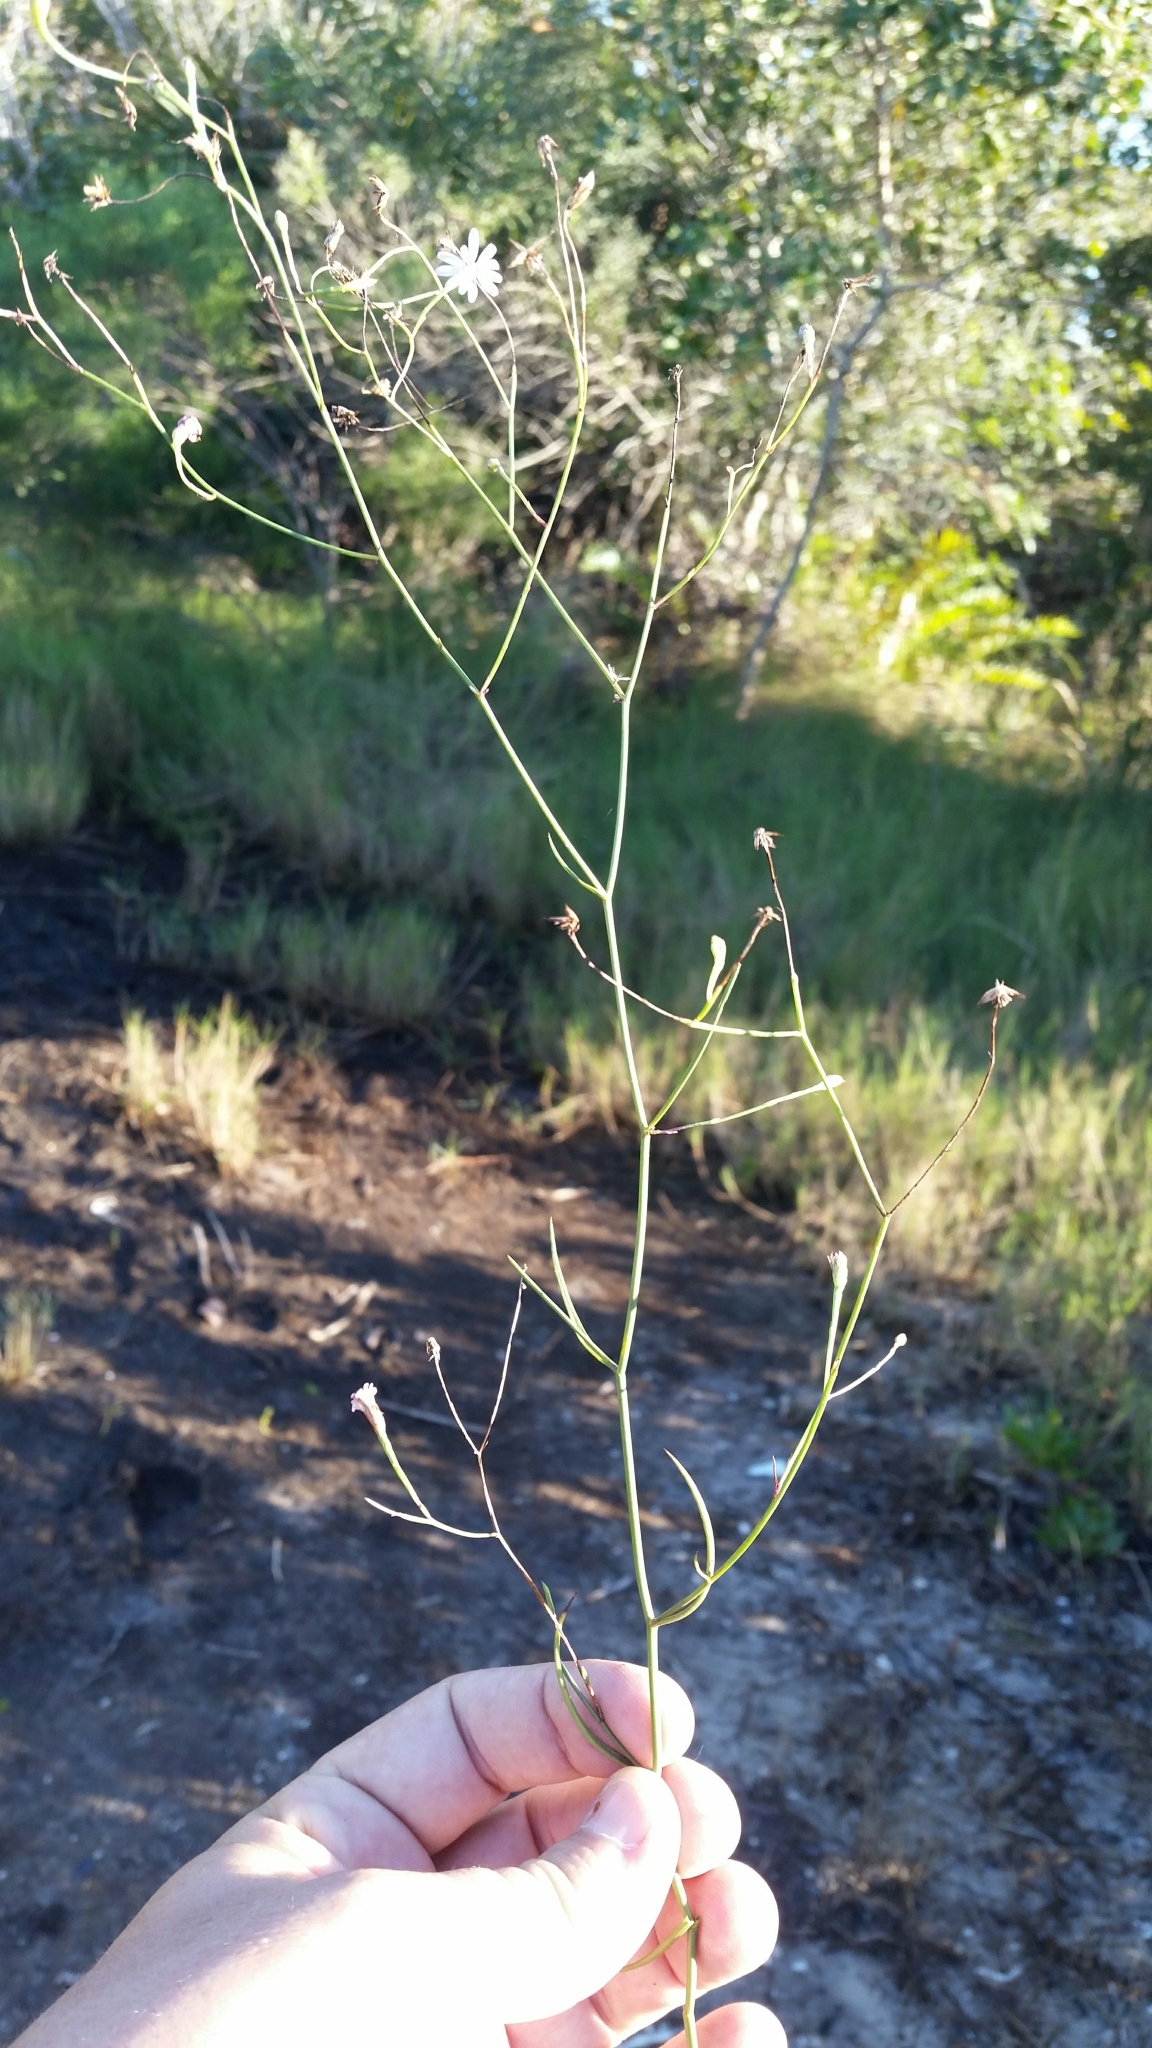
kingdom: Plantae
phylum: Tracheophyta
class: Magnoliopsida
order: Asterales
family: Asteraceae
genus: Symphyotrichum
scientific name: Symphyotrichum tenuifolium
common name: Perennial salt-marsh aster
